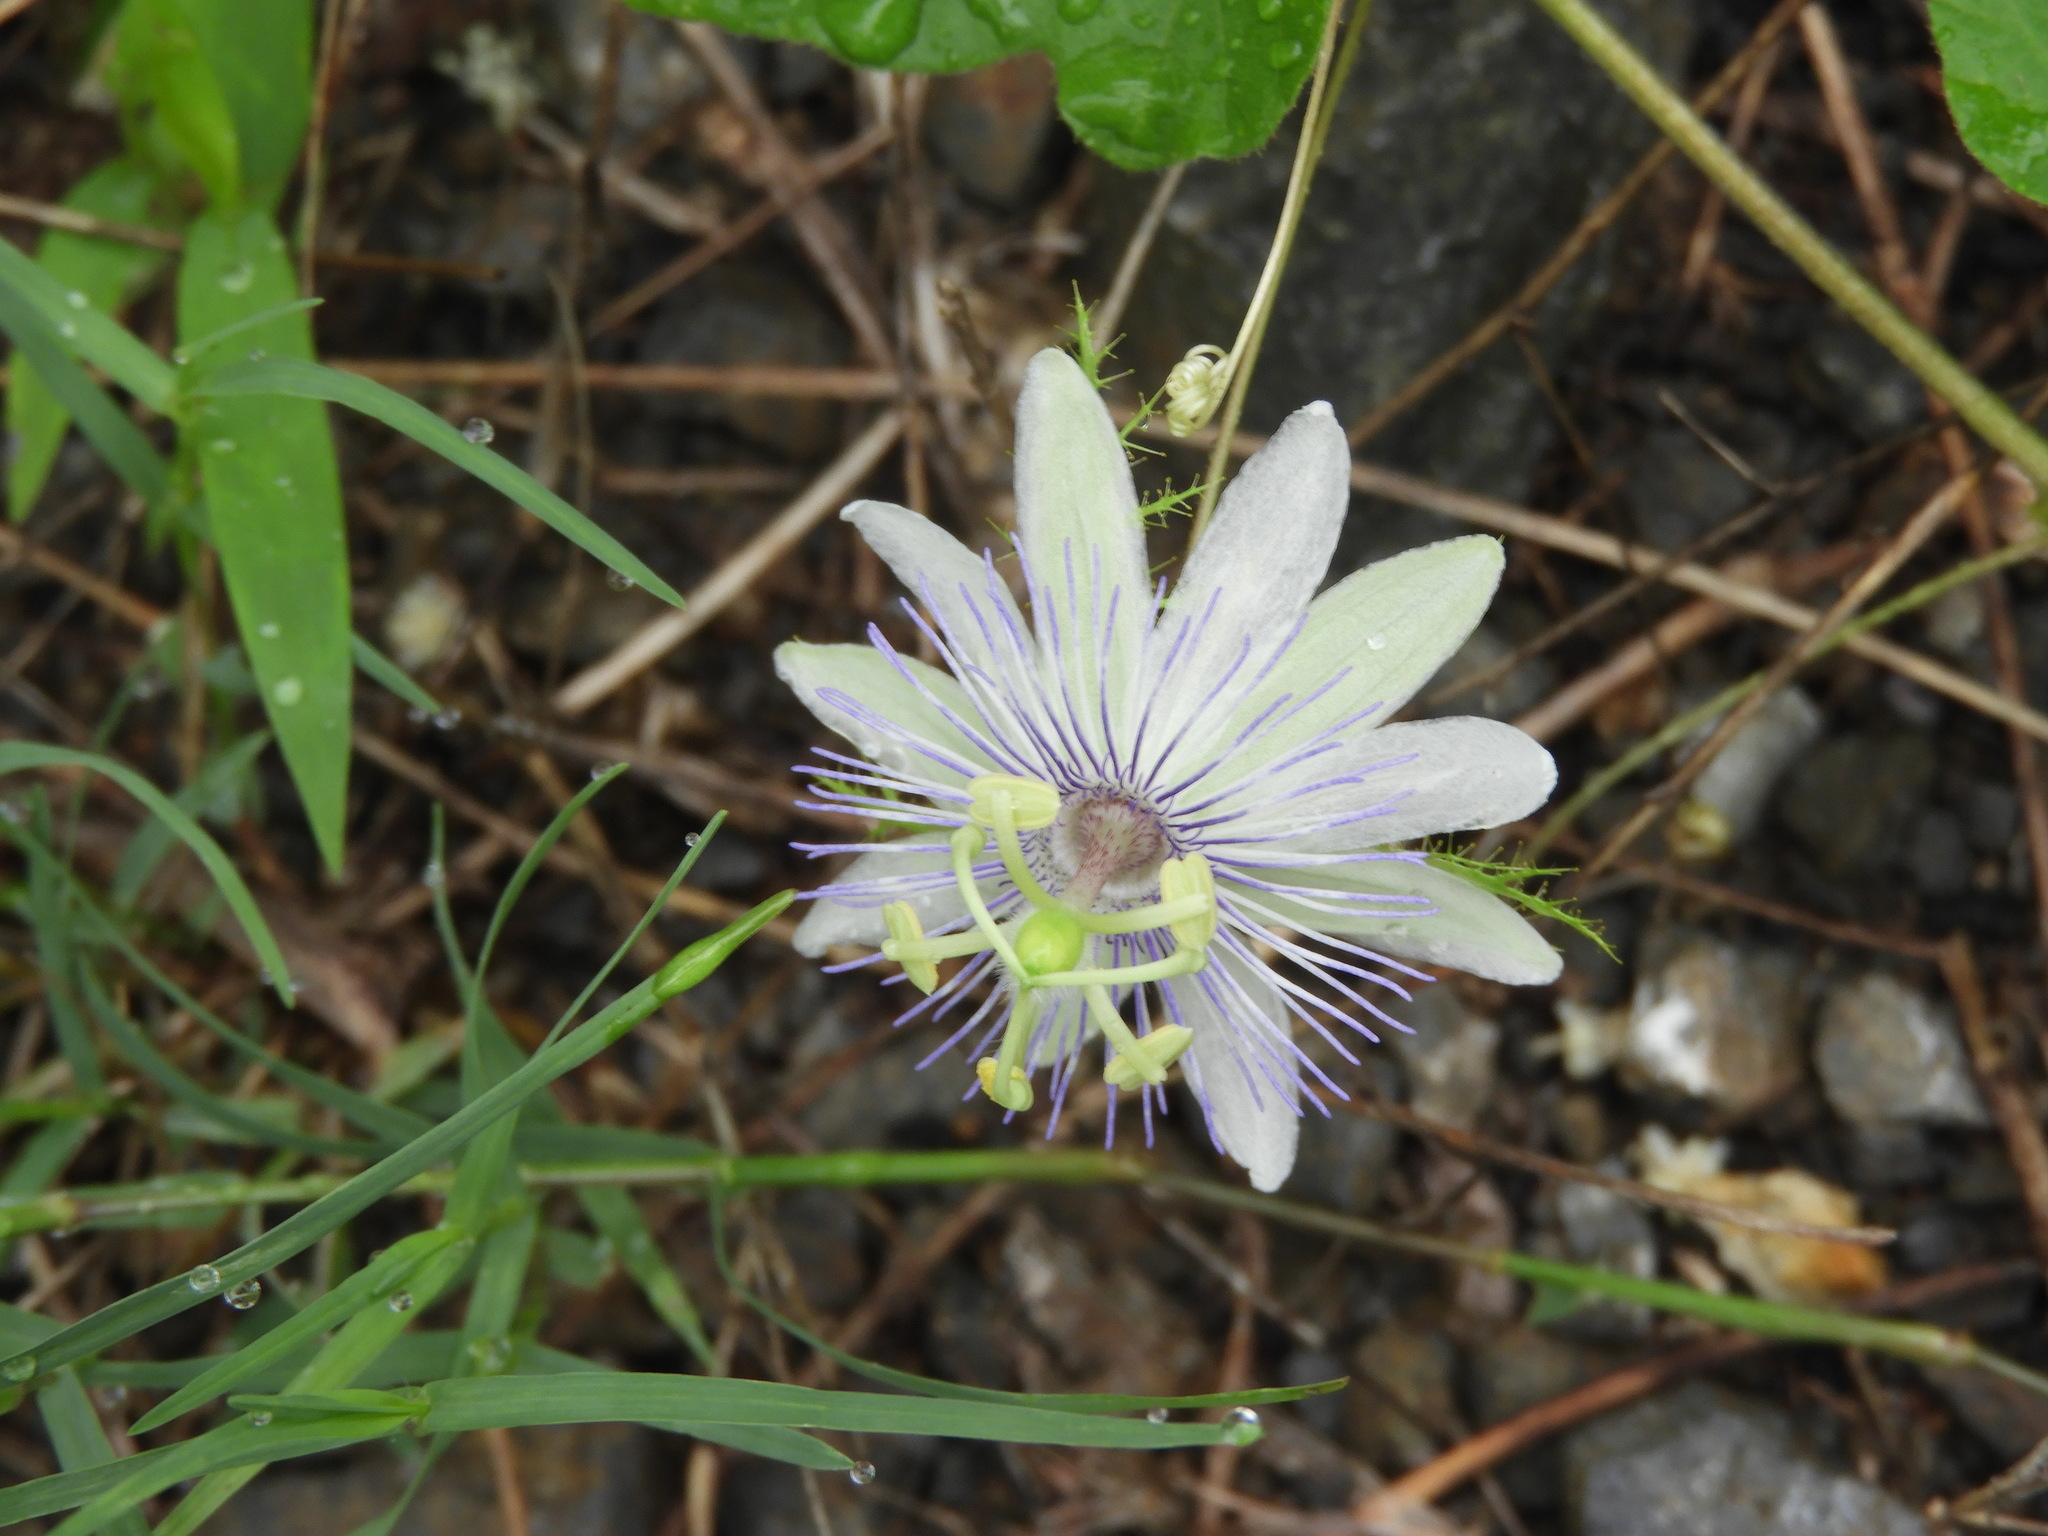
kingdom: Plantae
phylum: Tracheophyta
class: Magnoliopsida
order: Malpighiales
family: Passifloraceae
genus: Passiflora
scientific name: Passiflora foetida
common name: Fetid passionflower
